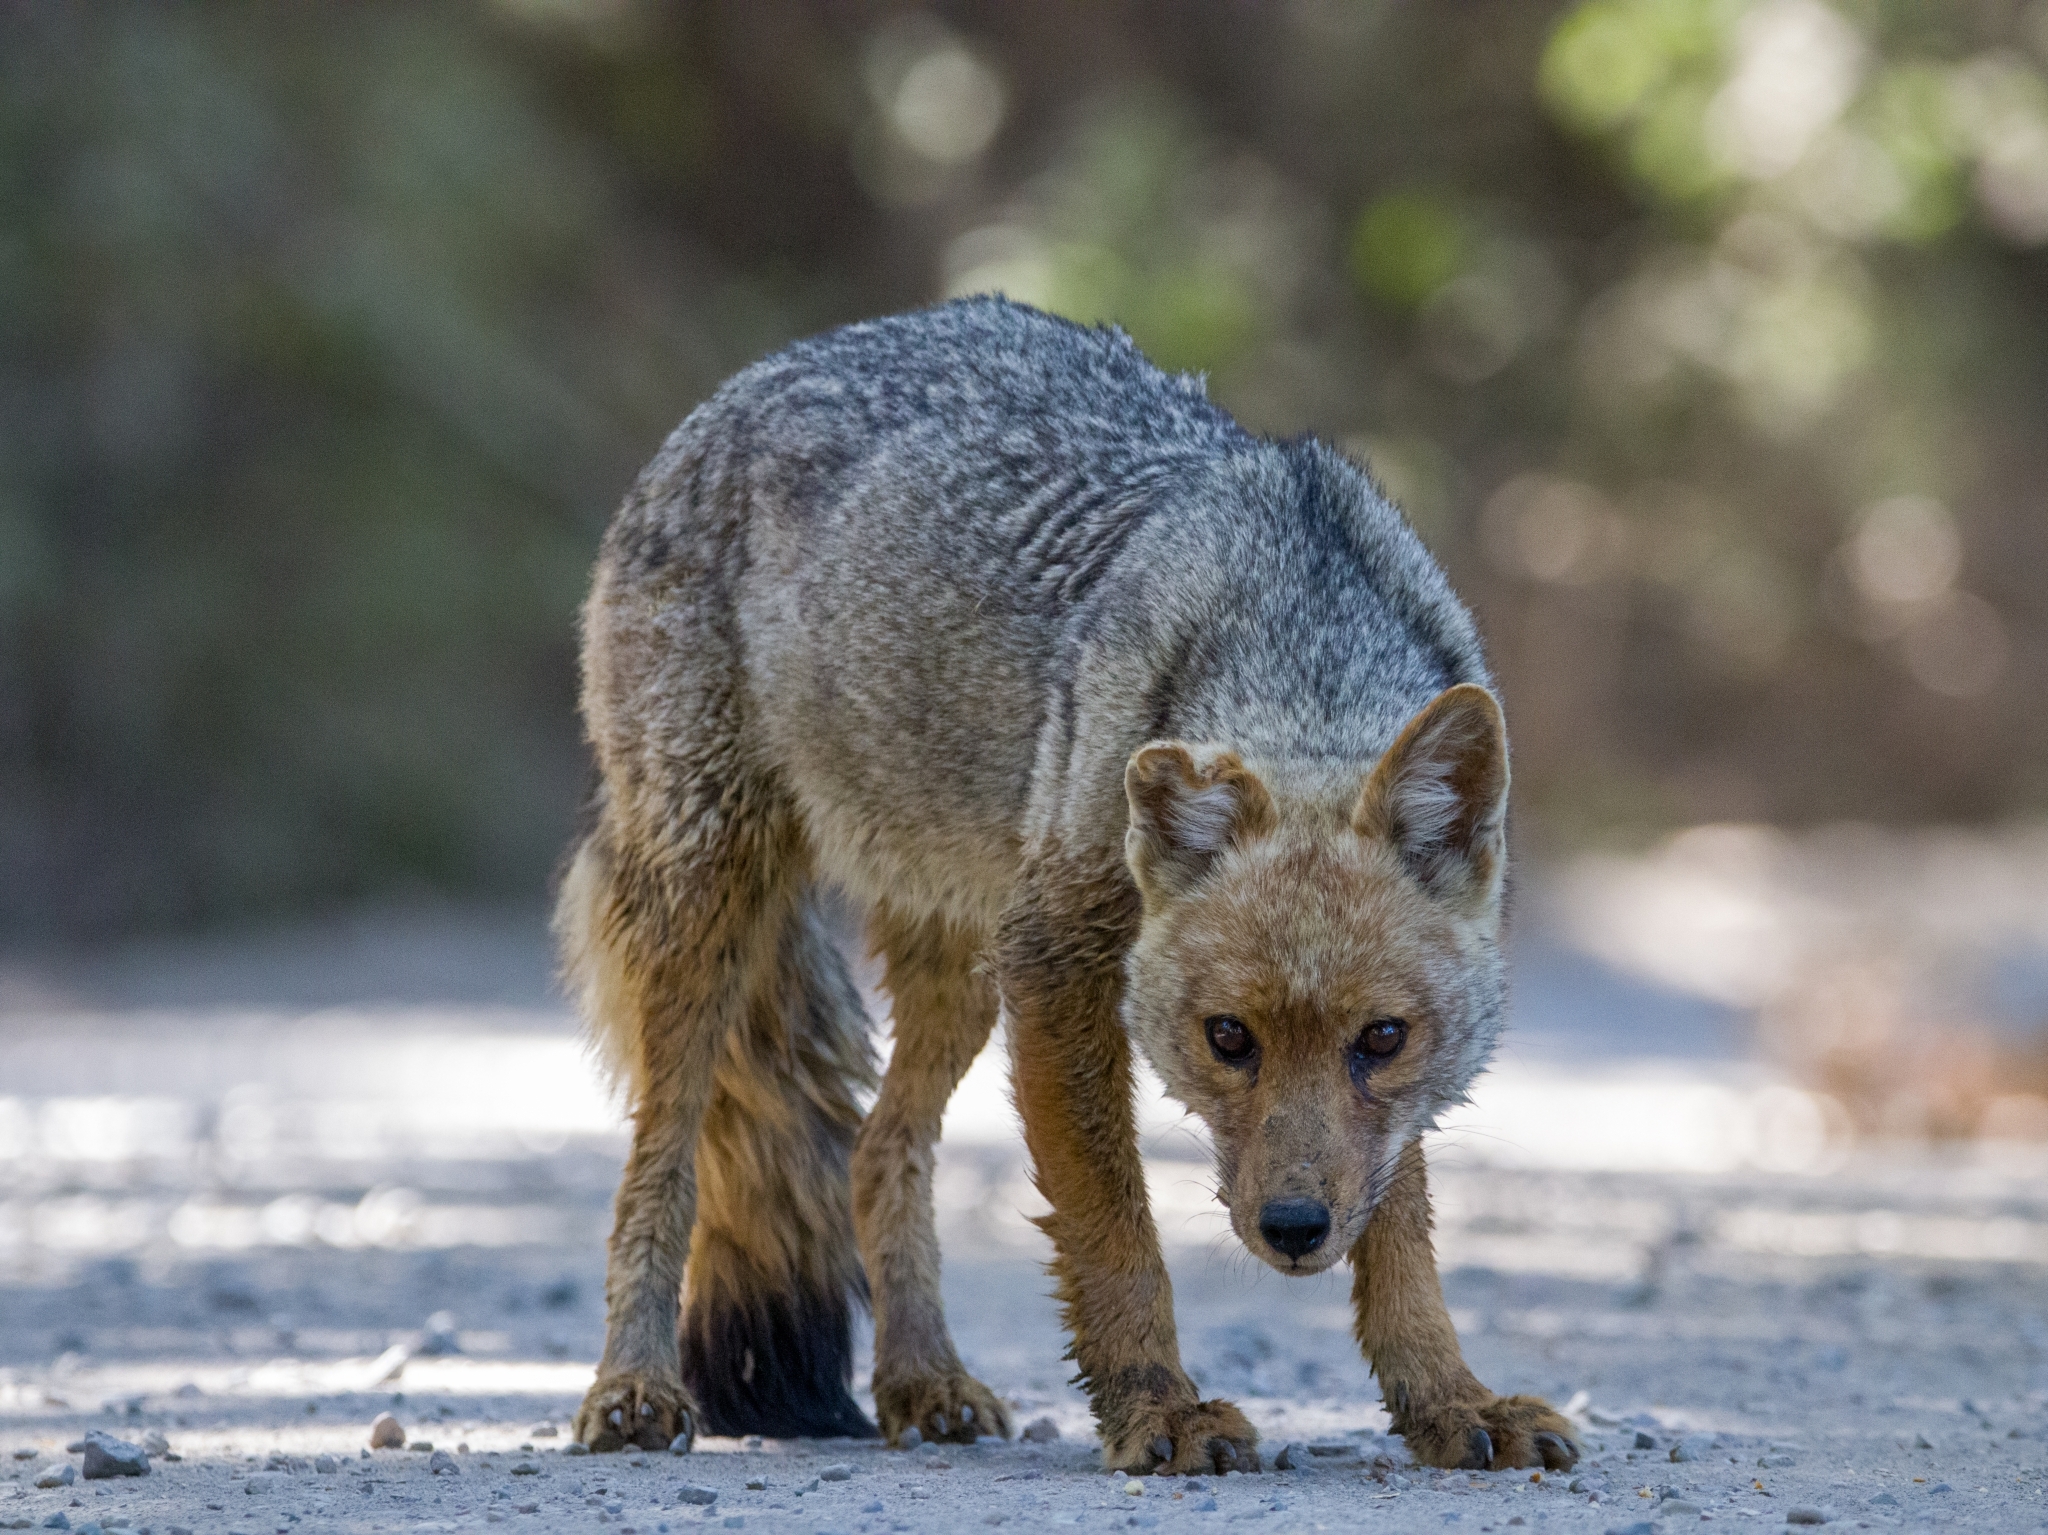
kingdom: Animalia
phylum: Chordata
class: Mammalia
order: Carnivora
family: Canidae
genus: Lycalopex
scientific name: Lycalopex culpaeus
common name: Culpeo
